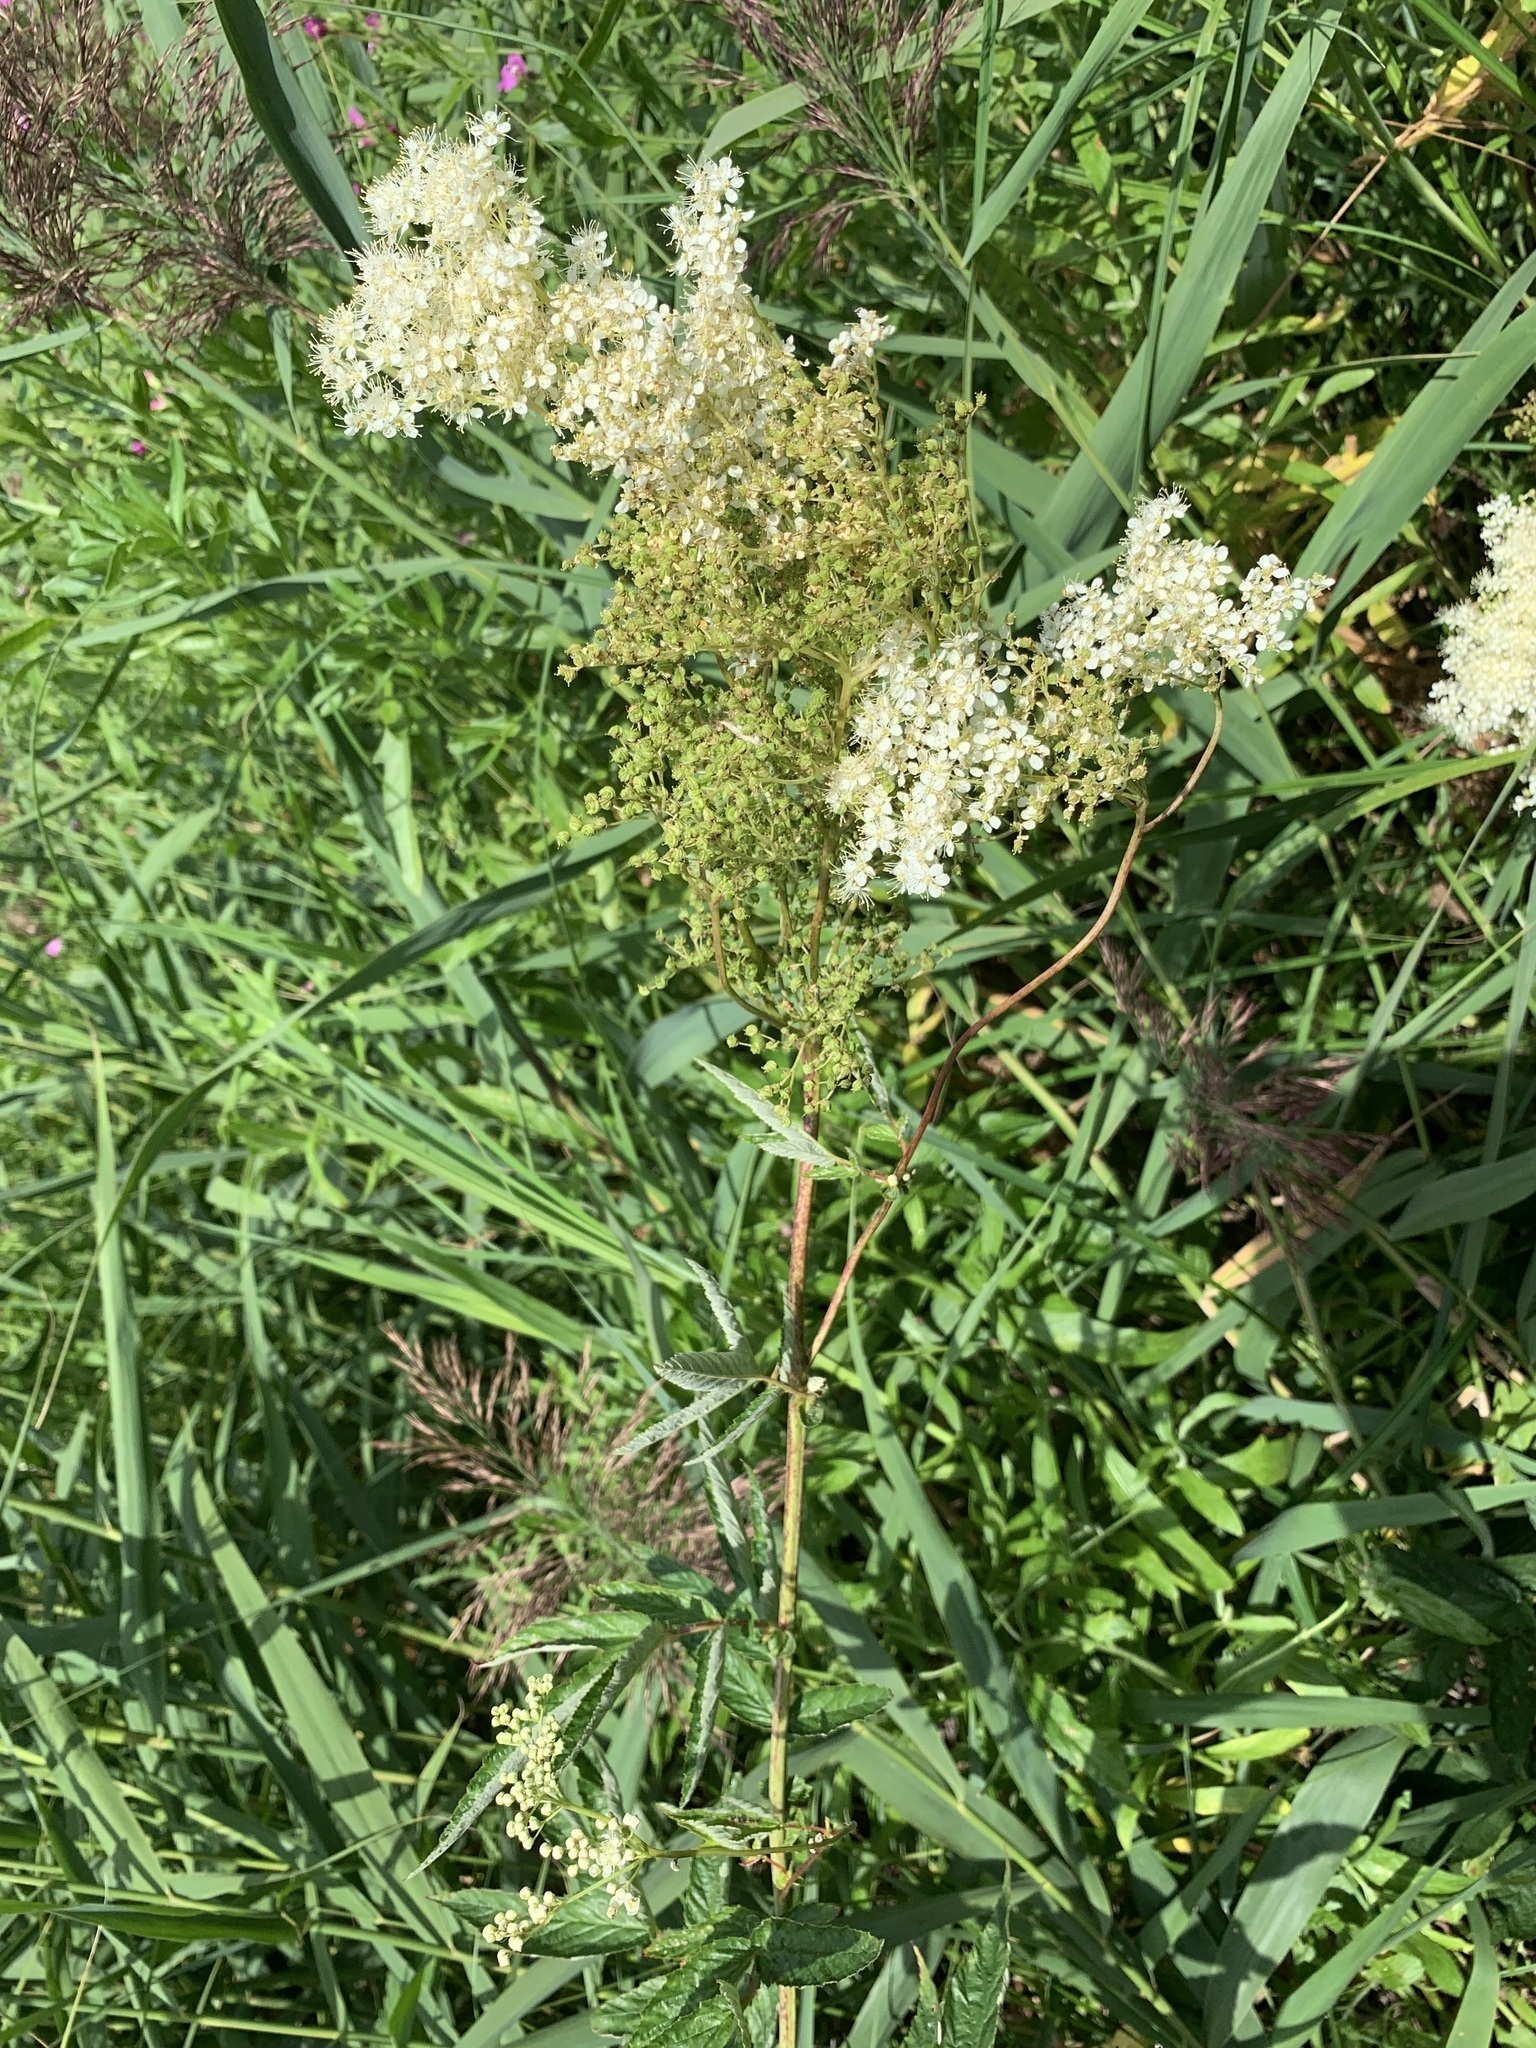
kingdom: Plantae
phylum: Tracheophyta
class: Magnoliopsida
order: Rosales
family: Rosaceae
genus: Filipendula
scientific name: Filipendula ulmaria
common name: Meadowsweet
